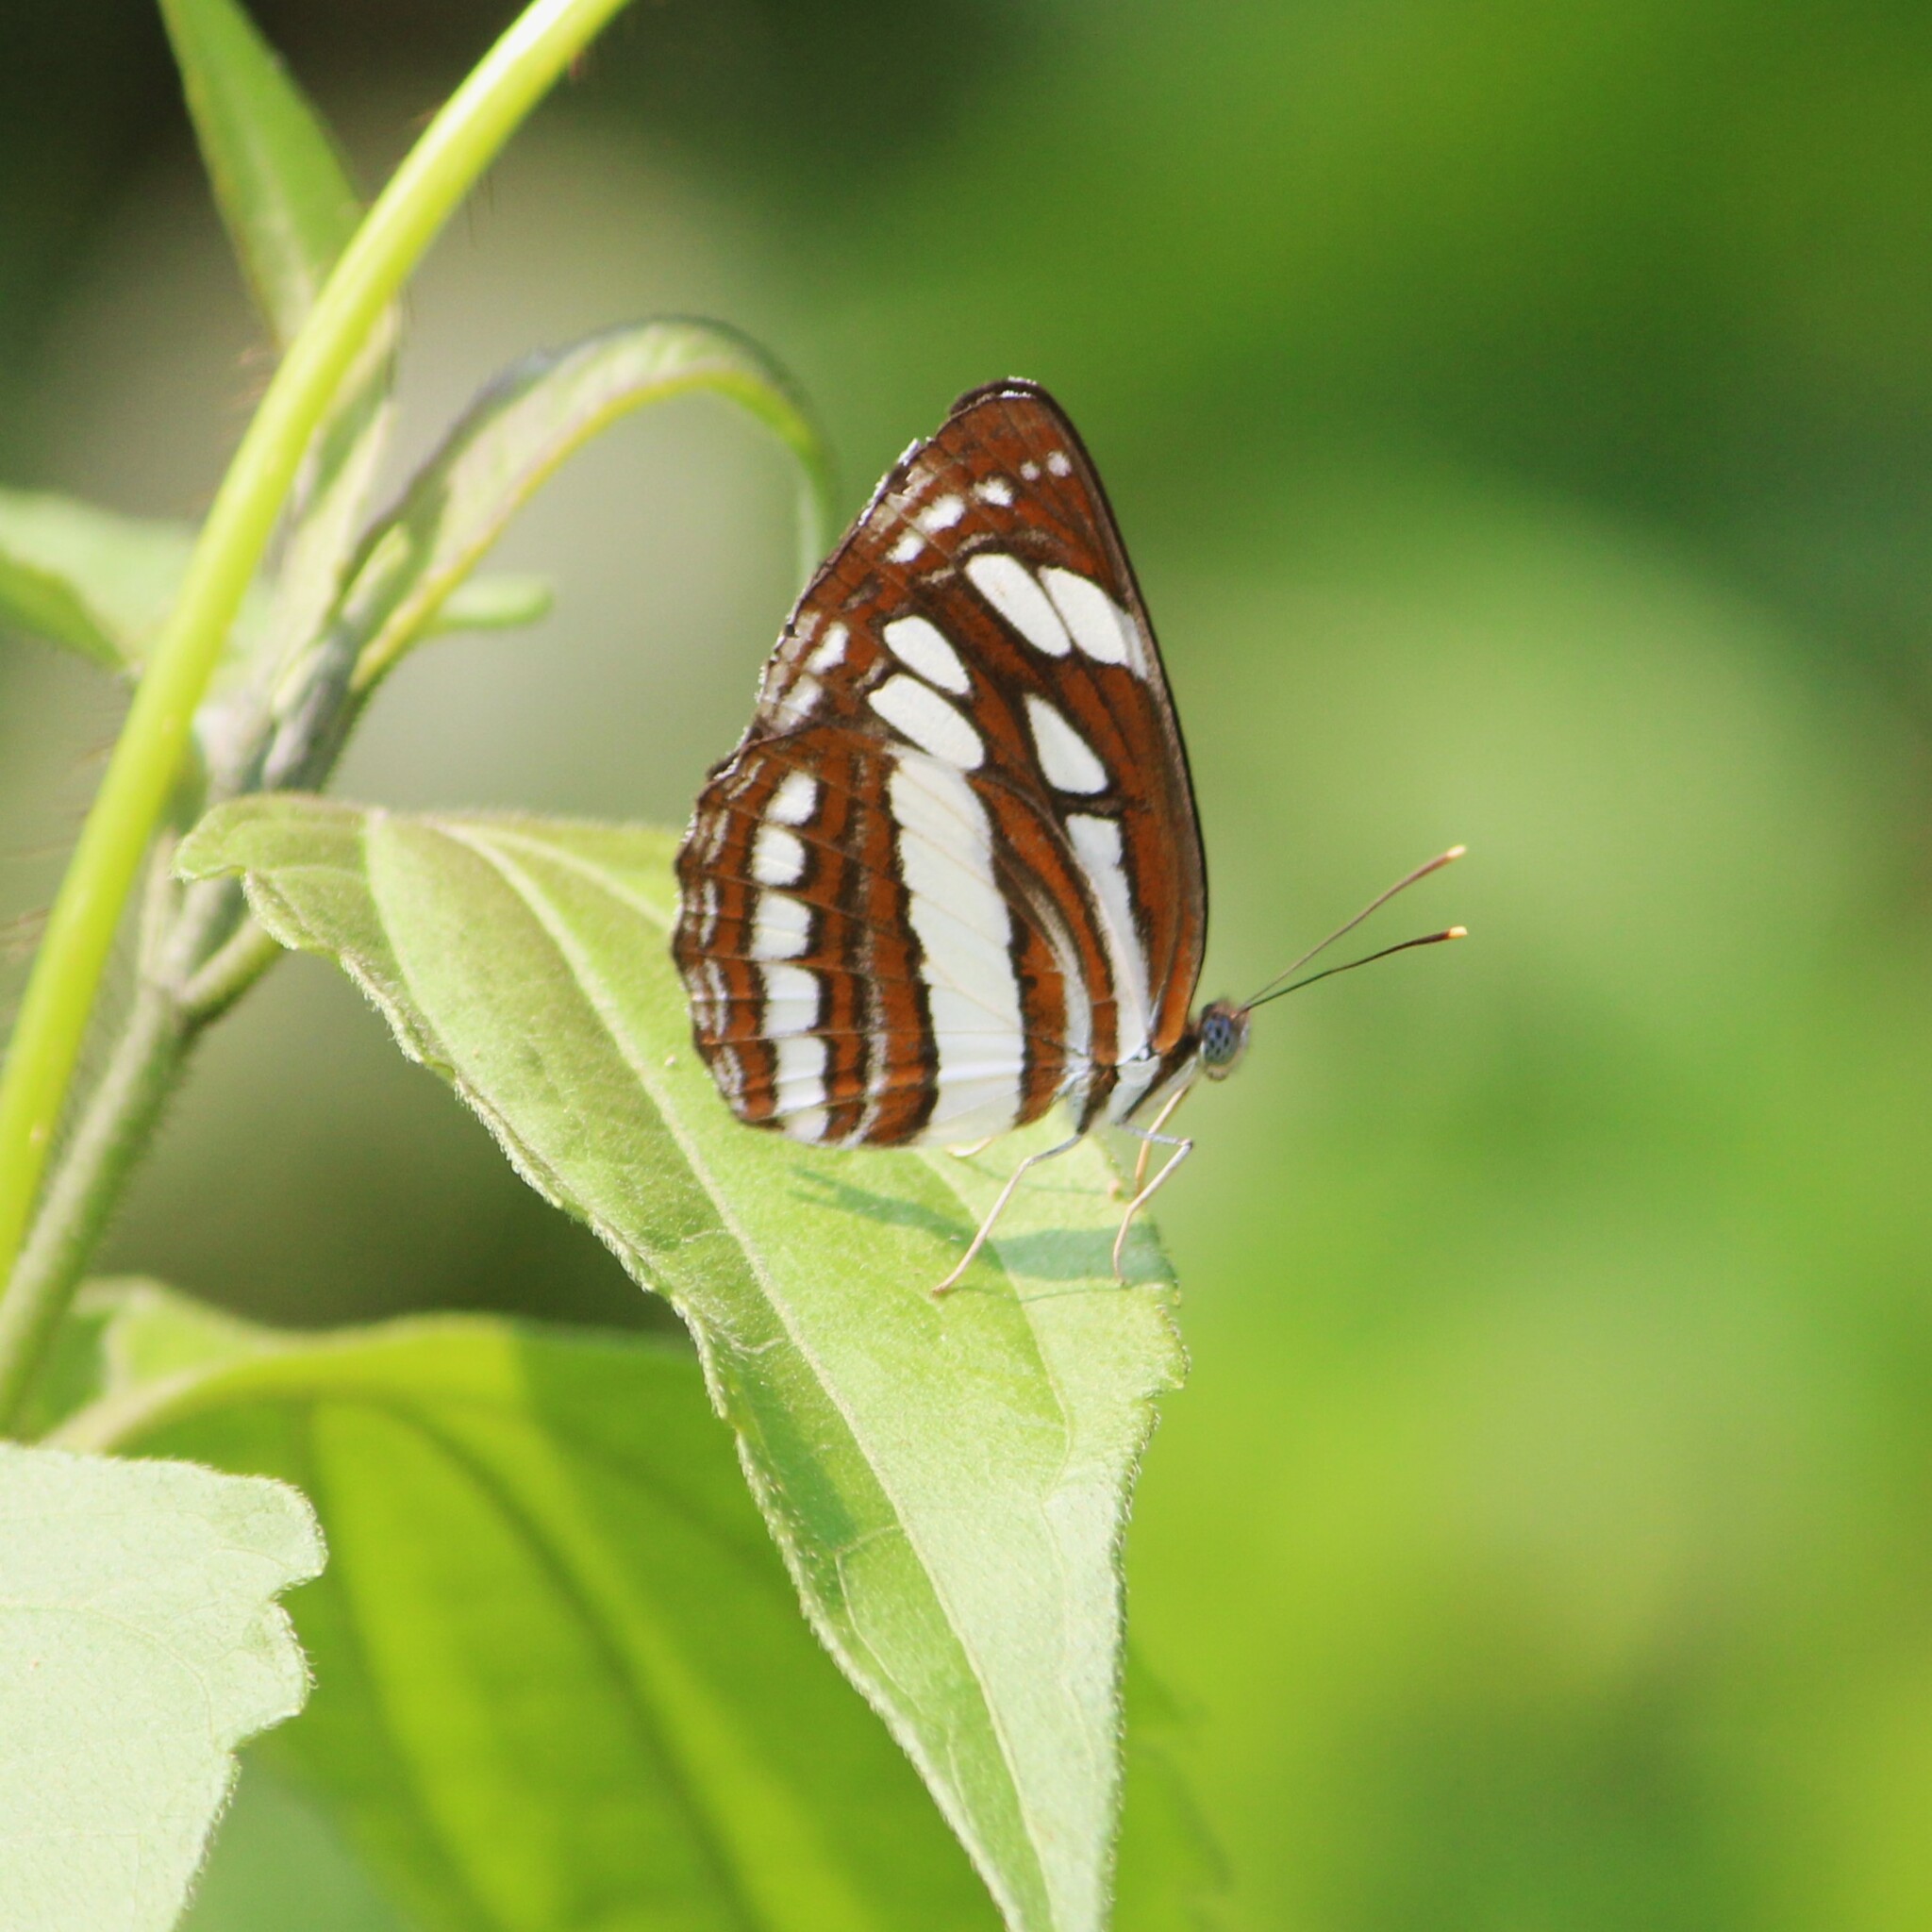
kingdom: Animalia
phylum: Arthropoda
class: Insecta
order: Lepidoptera
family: Nymphalidae
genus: Neptis
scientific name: Neptis hylas
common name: Common sailer
